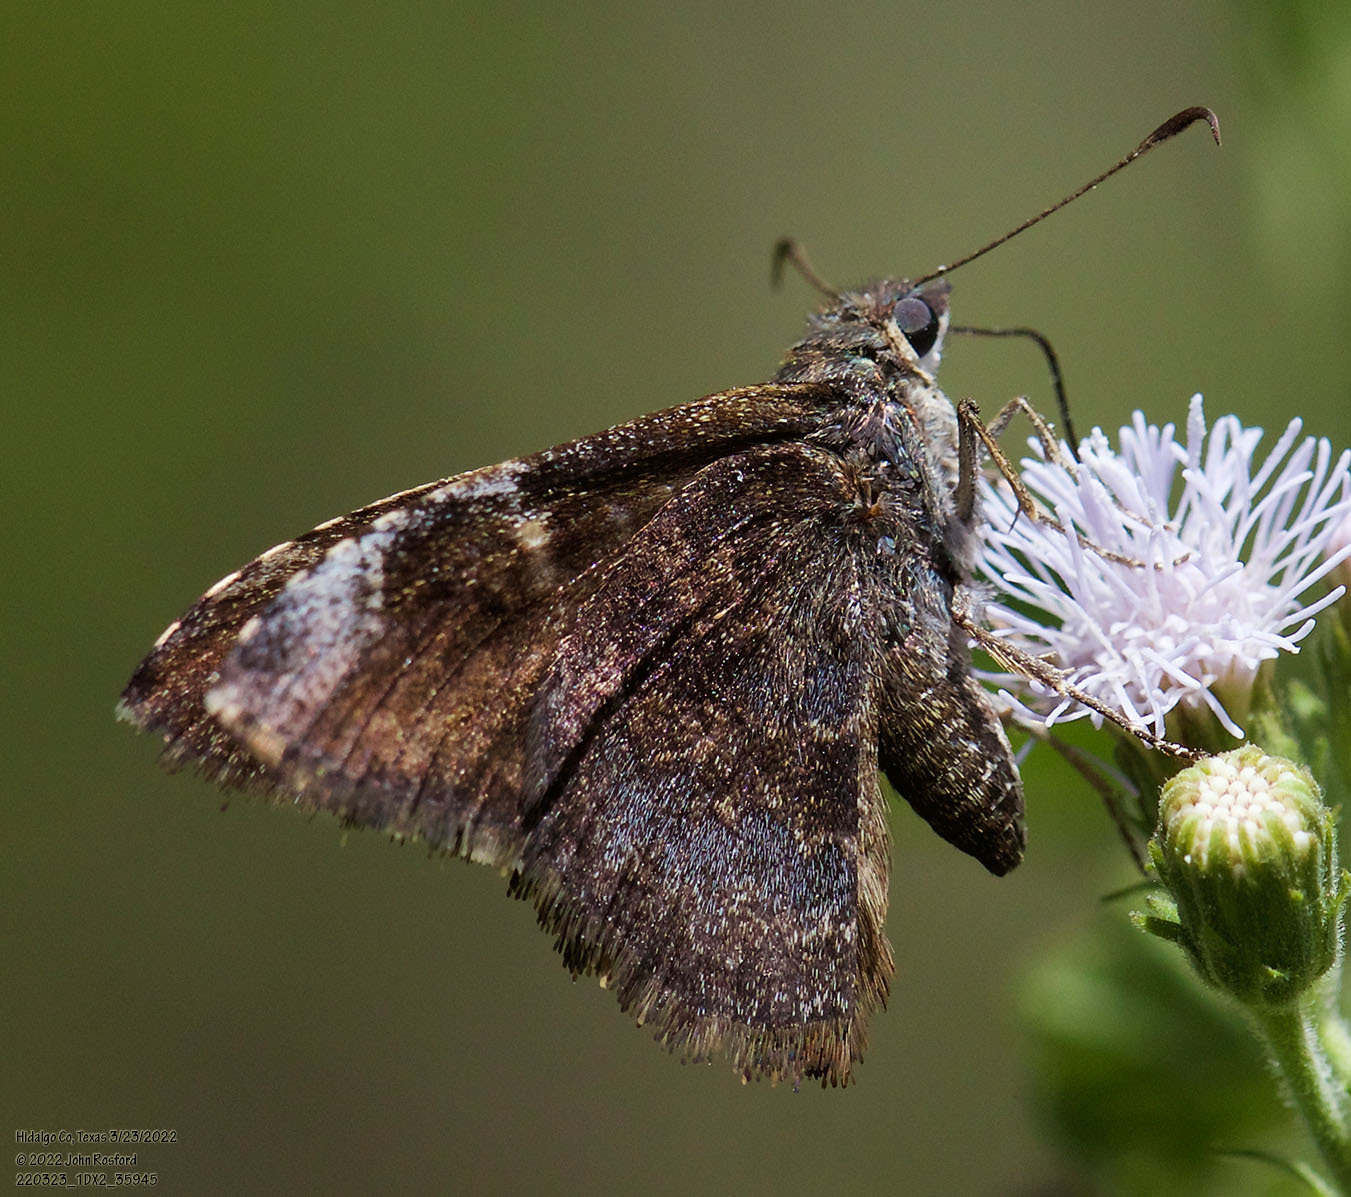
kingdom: Animalia
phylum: Arthropoda
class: Insecta
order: Lepidoptera
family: Hesperiidae
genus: Caicella
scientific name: Caicella calchas
